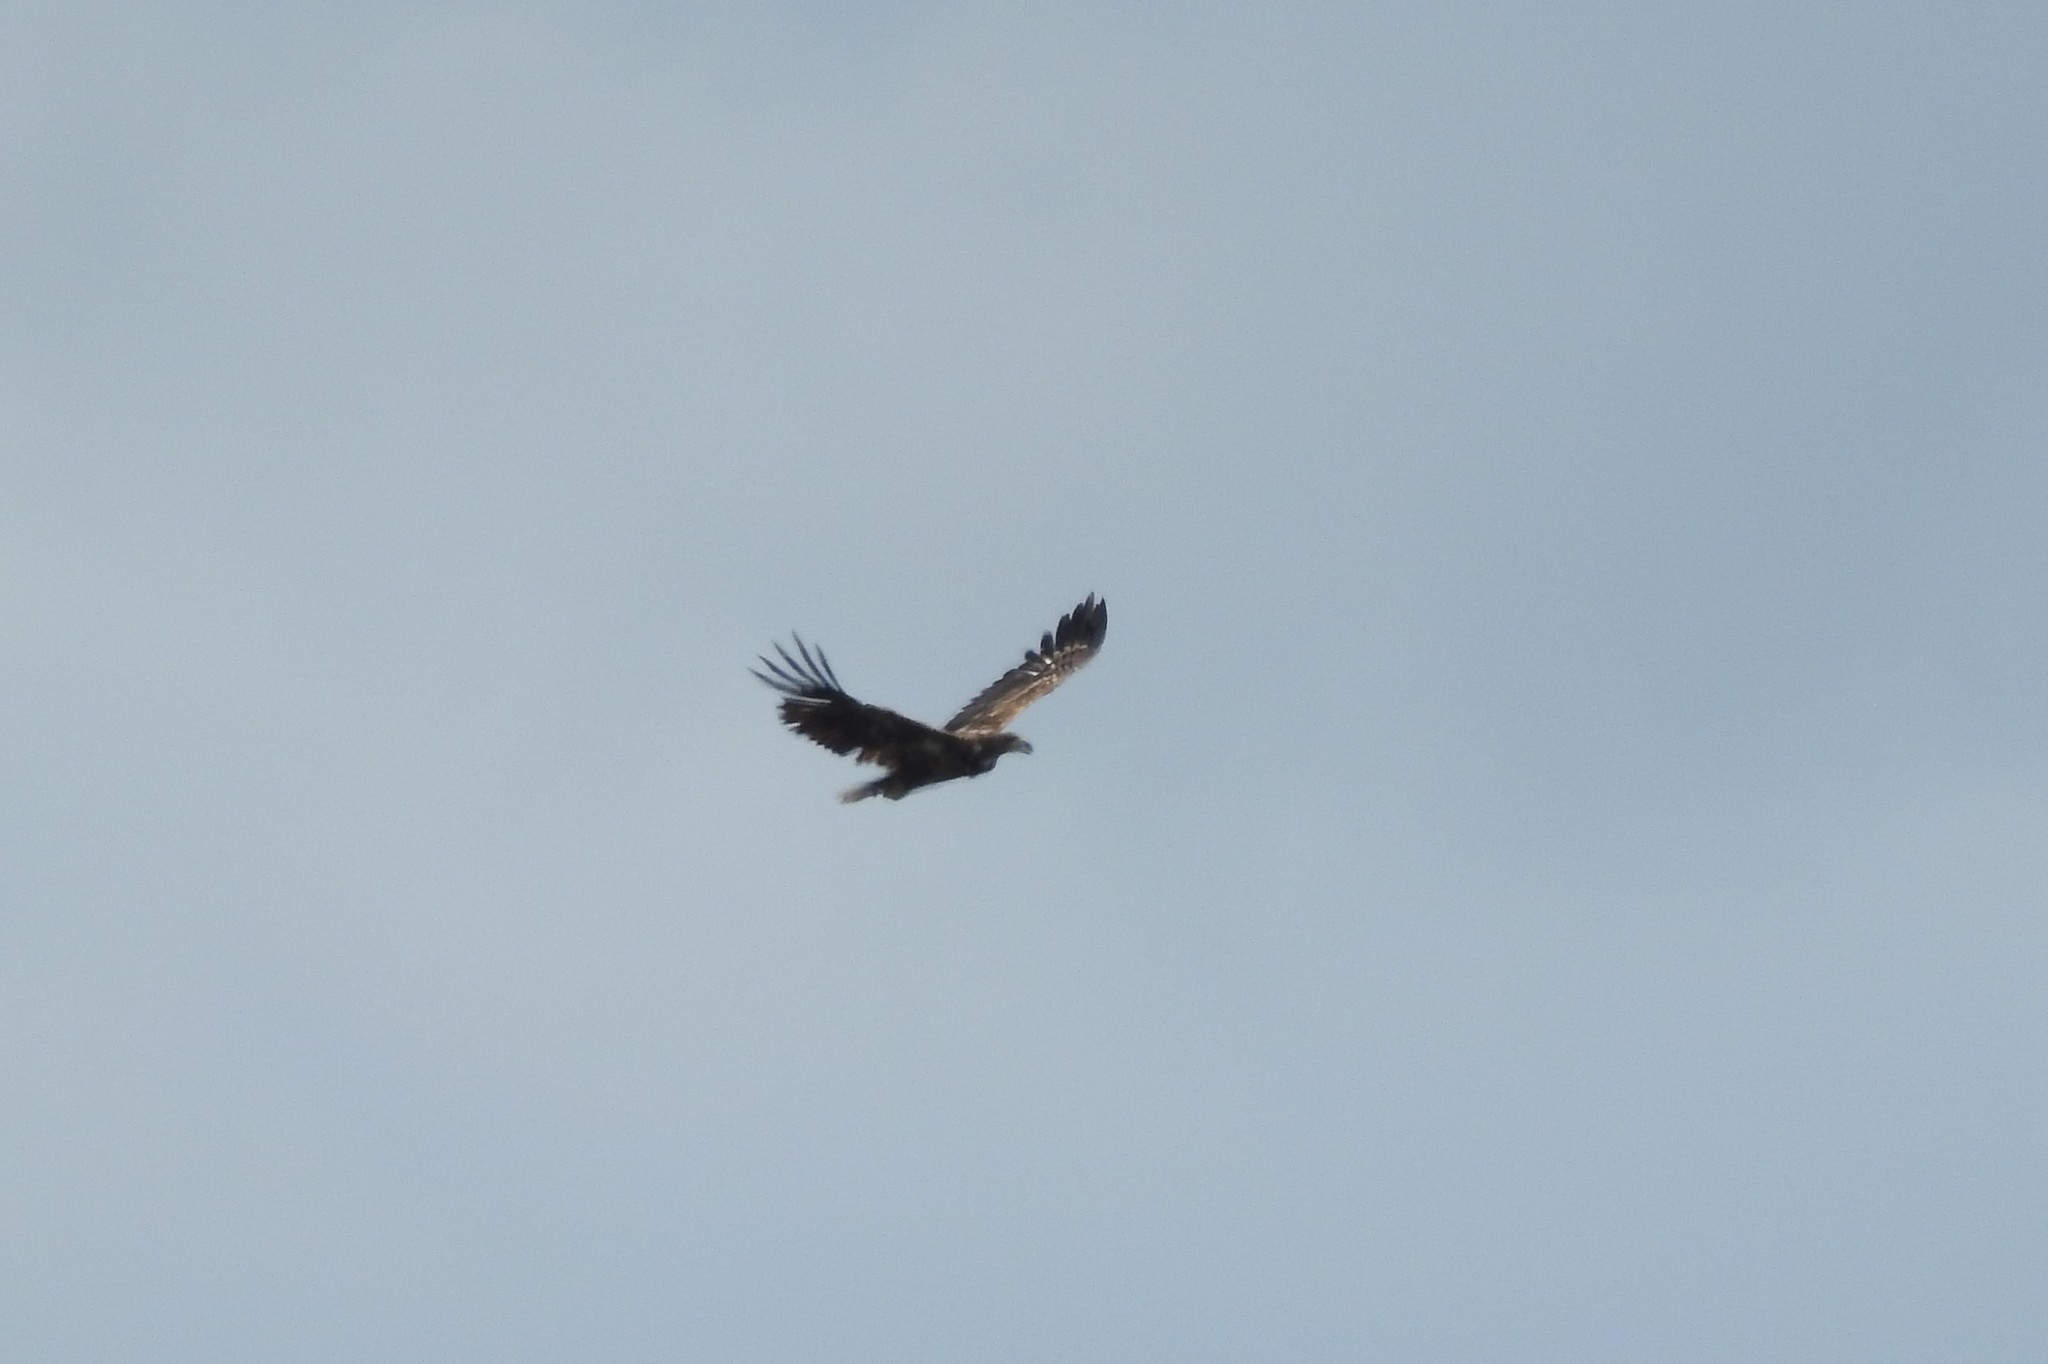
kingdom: Animalia
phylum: Chordata
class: Aves
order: Accipitriformes
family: Accipitridae
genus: Haliaeetus
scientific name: Haliaeetus albicilla
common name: White-tailed eagle
